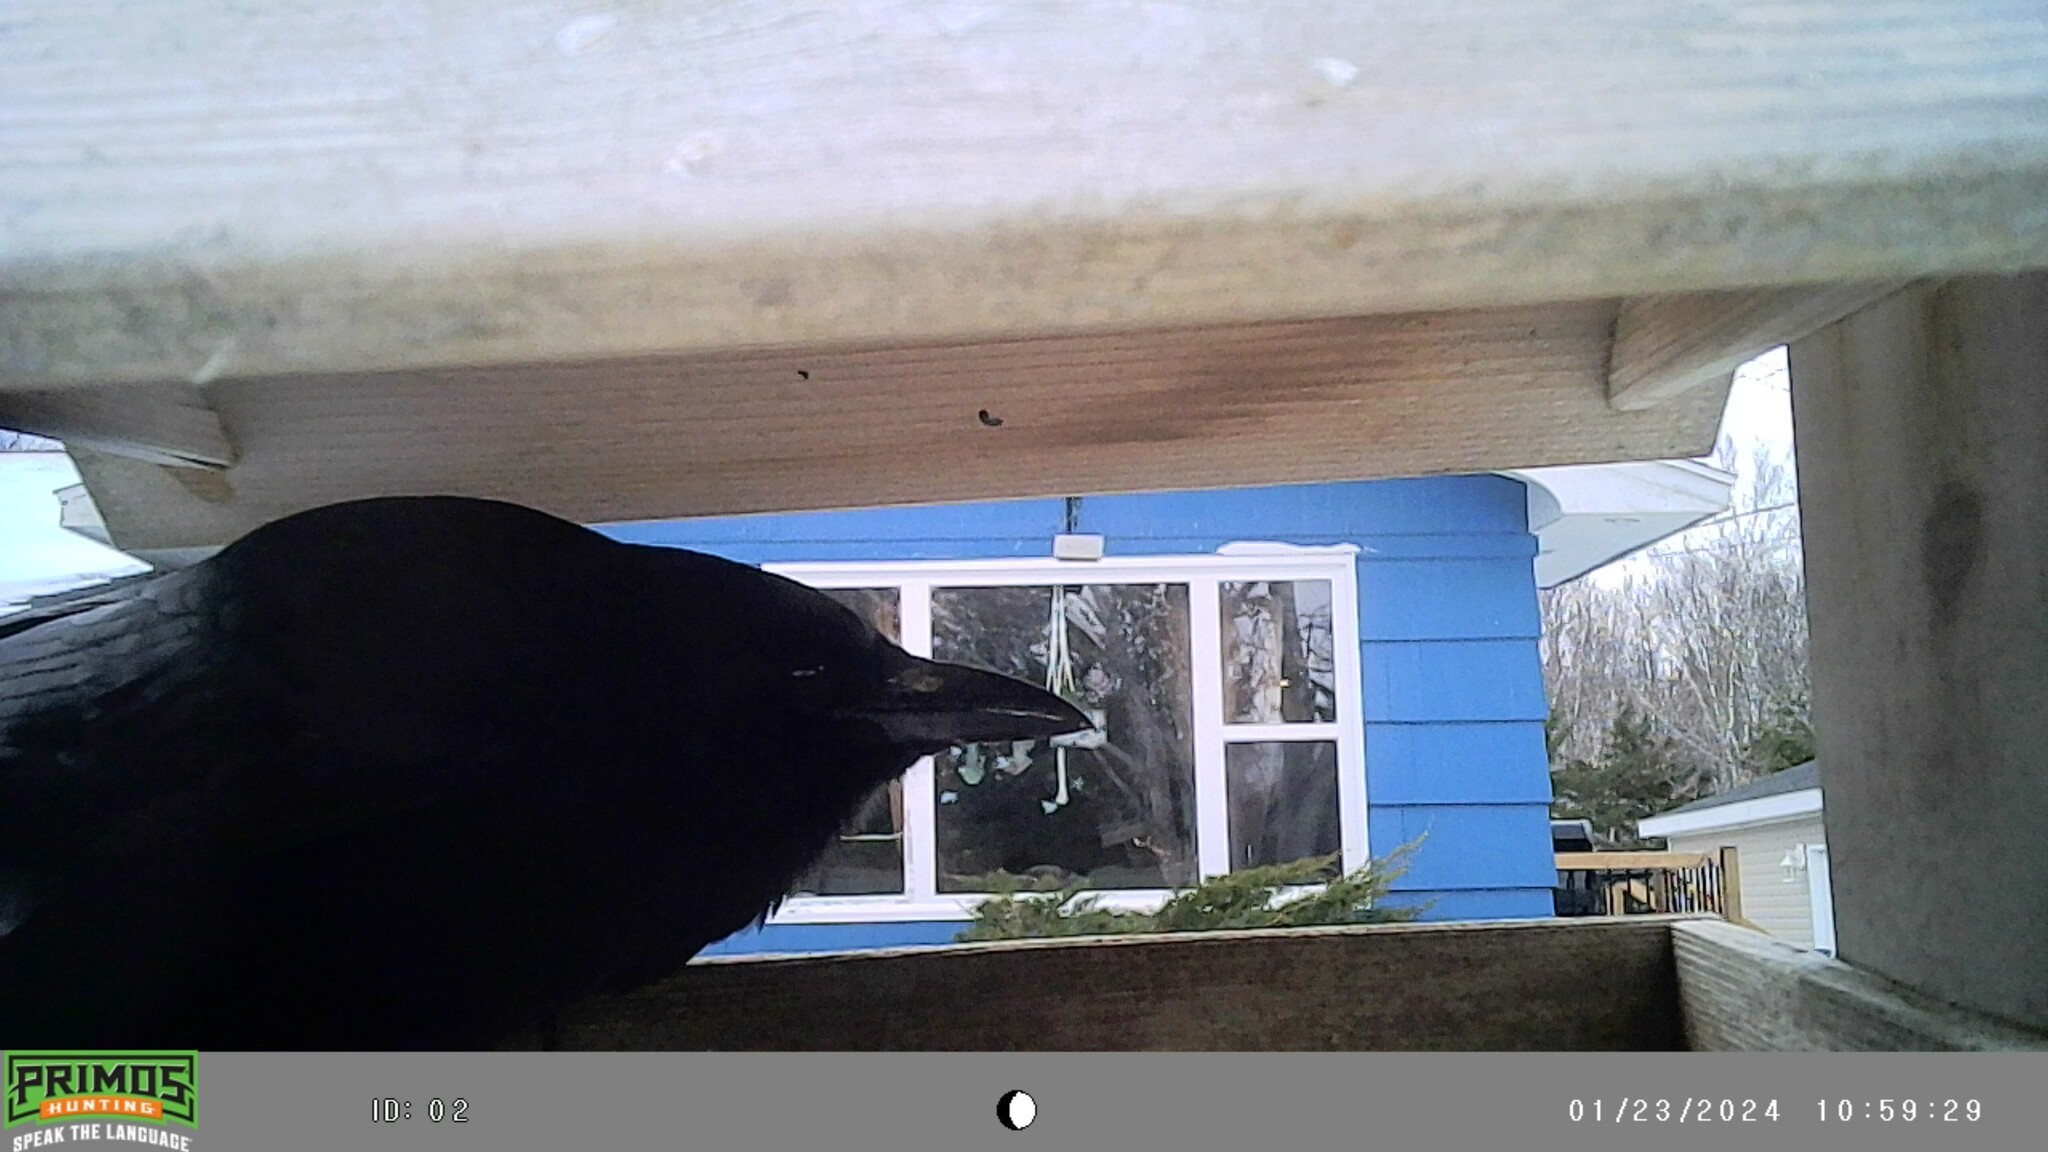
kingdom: Animalia
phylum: Chordata
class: Aves
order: Passeriformes
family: Corvidae
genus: Corvus
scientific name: Corvus brachyrhynchos
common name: American crow
